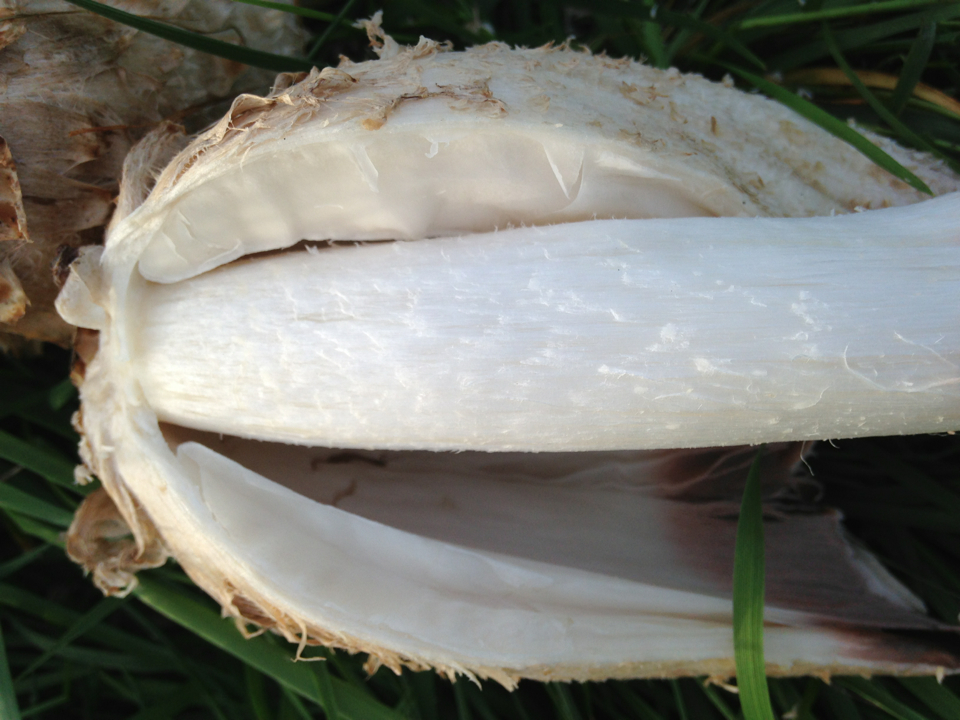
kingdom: Fungi
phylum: Basidiomycota
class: Agaricomycetes
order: Agaricales
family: Agaricaceae
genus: Coprinus
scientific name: Coprinus comatus
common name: Lawyer's wig
